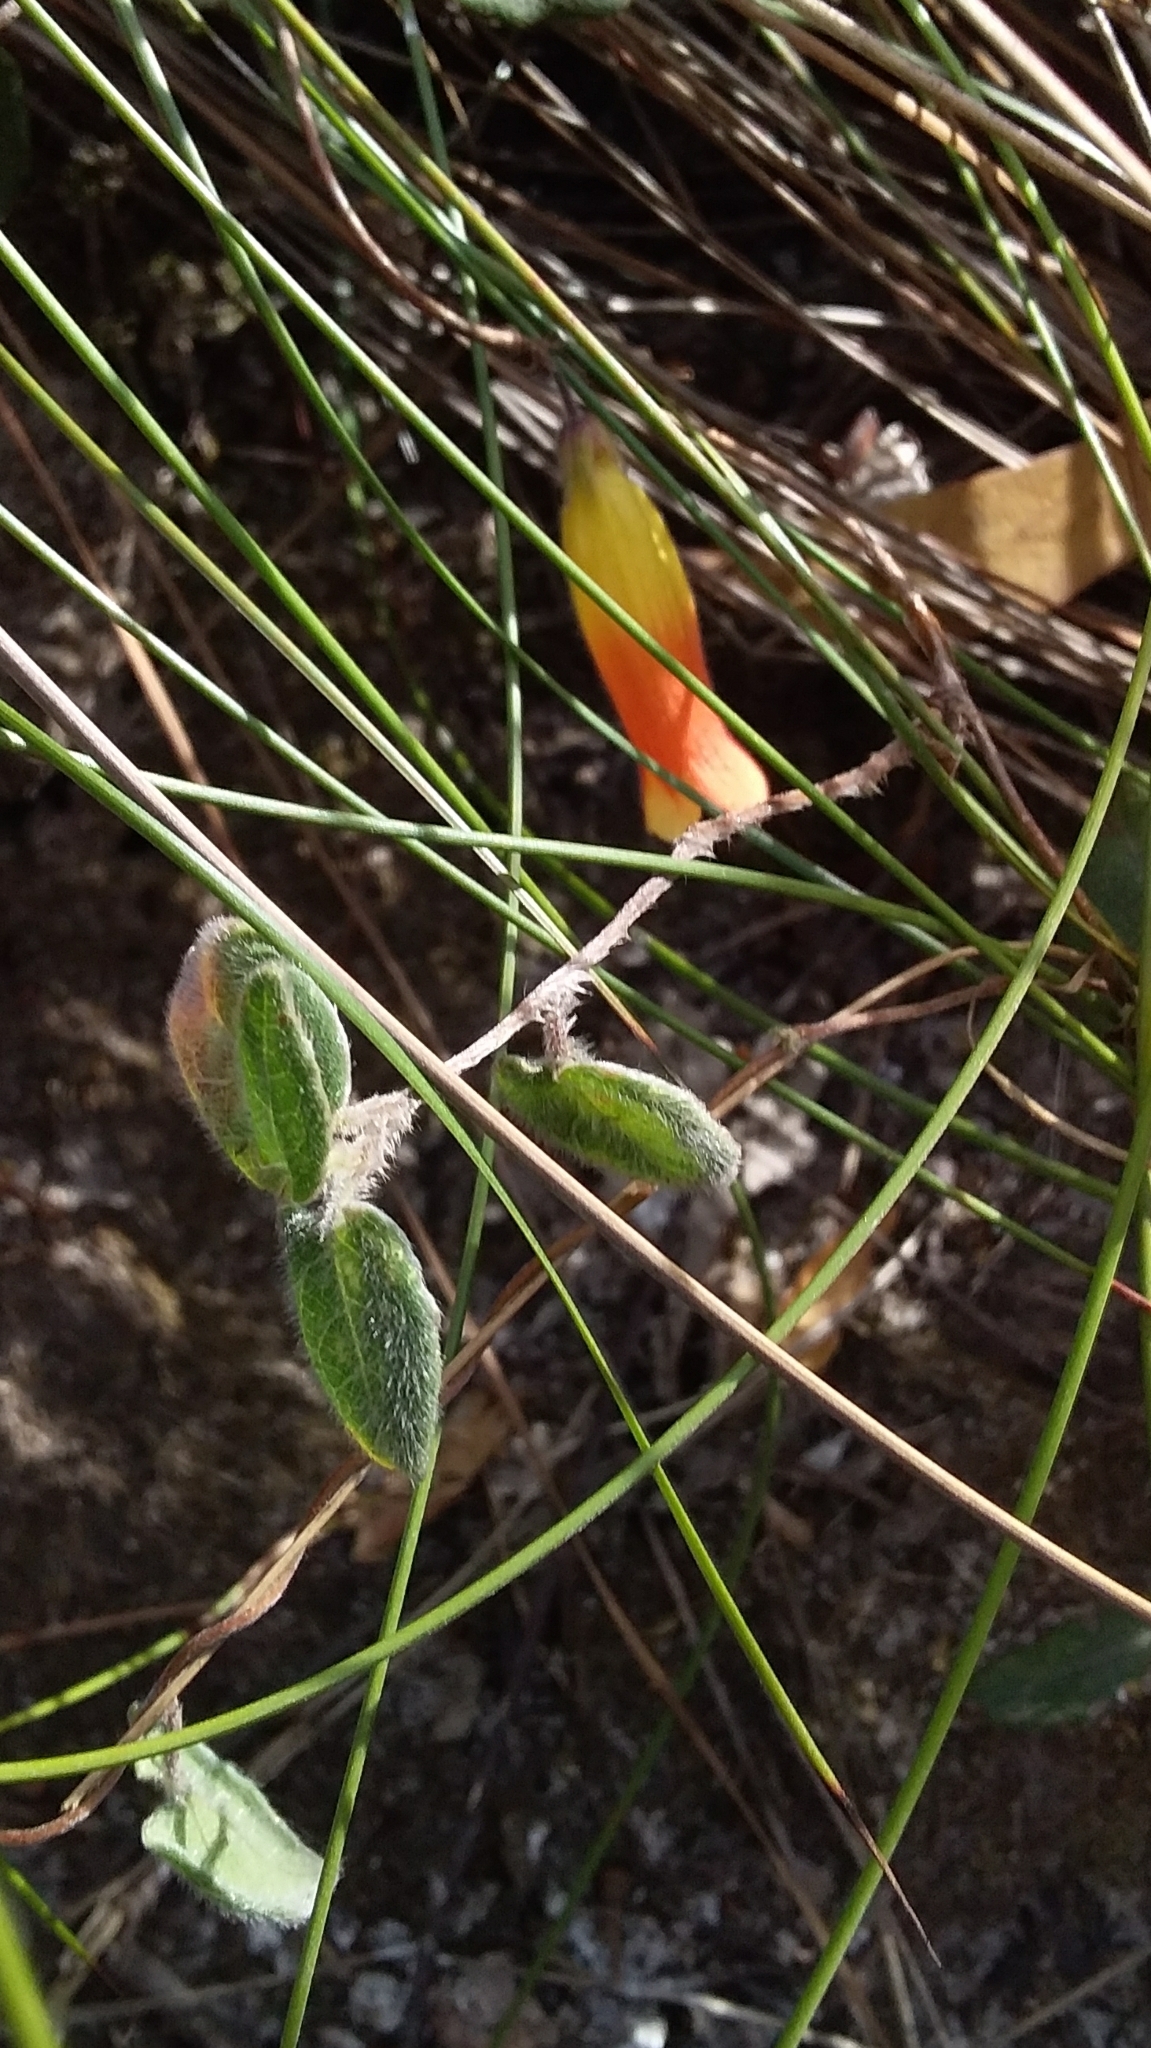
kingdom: Plantae
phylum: Tracheophyta
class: Magnoliopsida
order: Apiales
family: Pittosporaceae
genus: Marianthus
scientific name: Marianthus bignoniaceus
